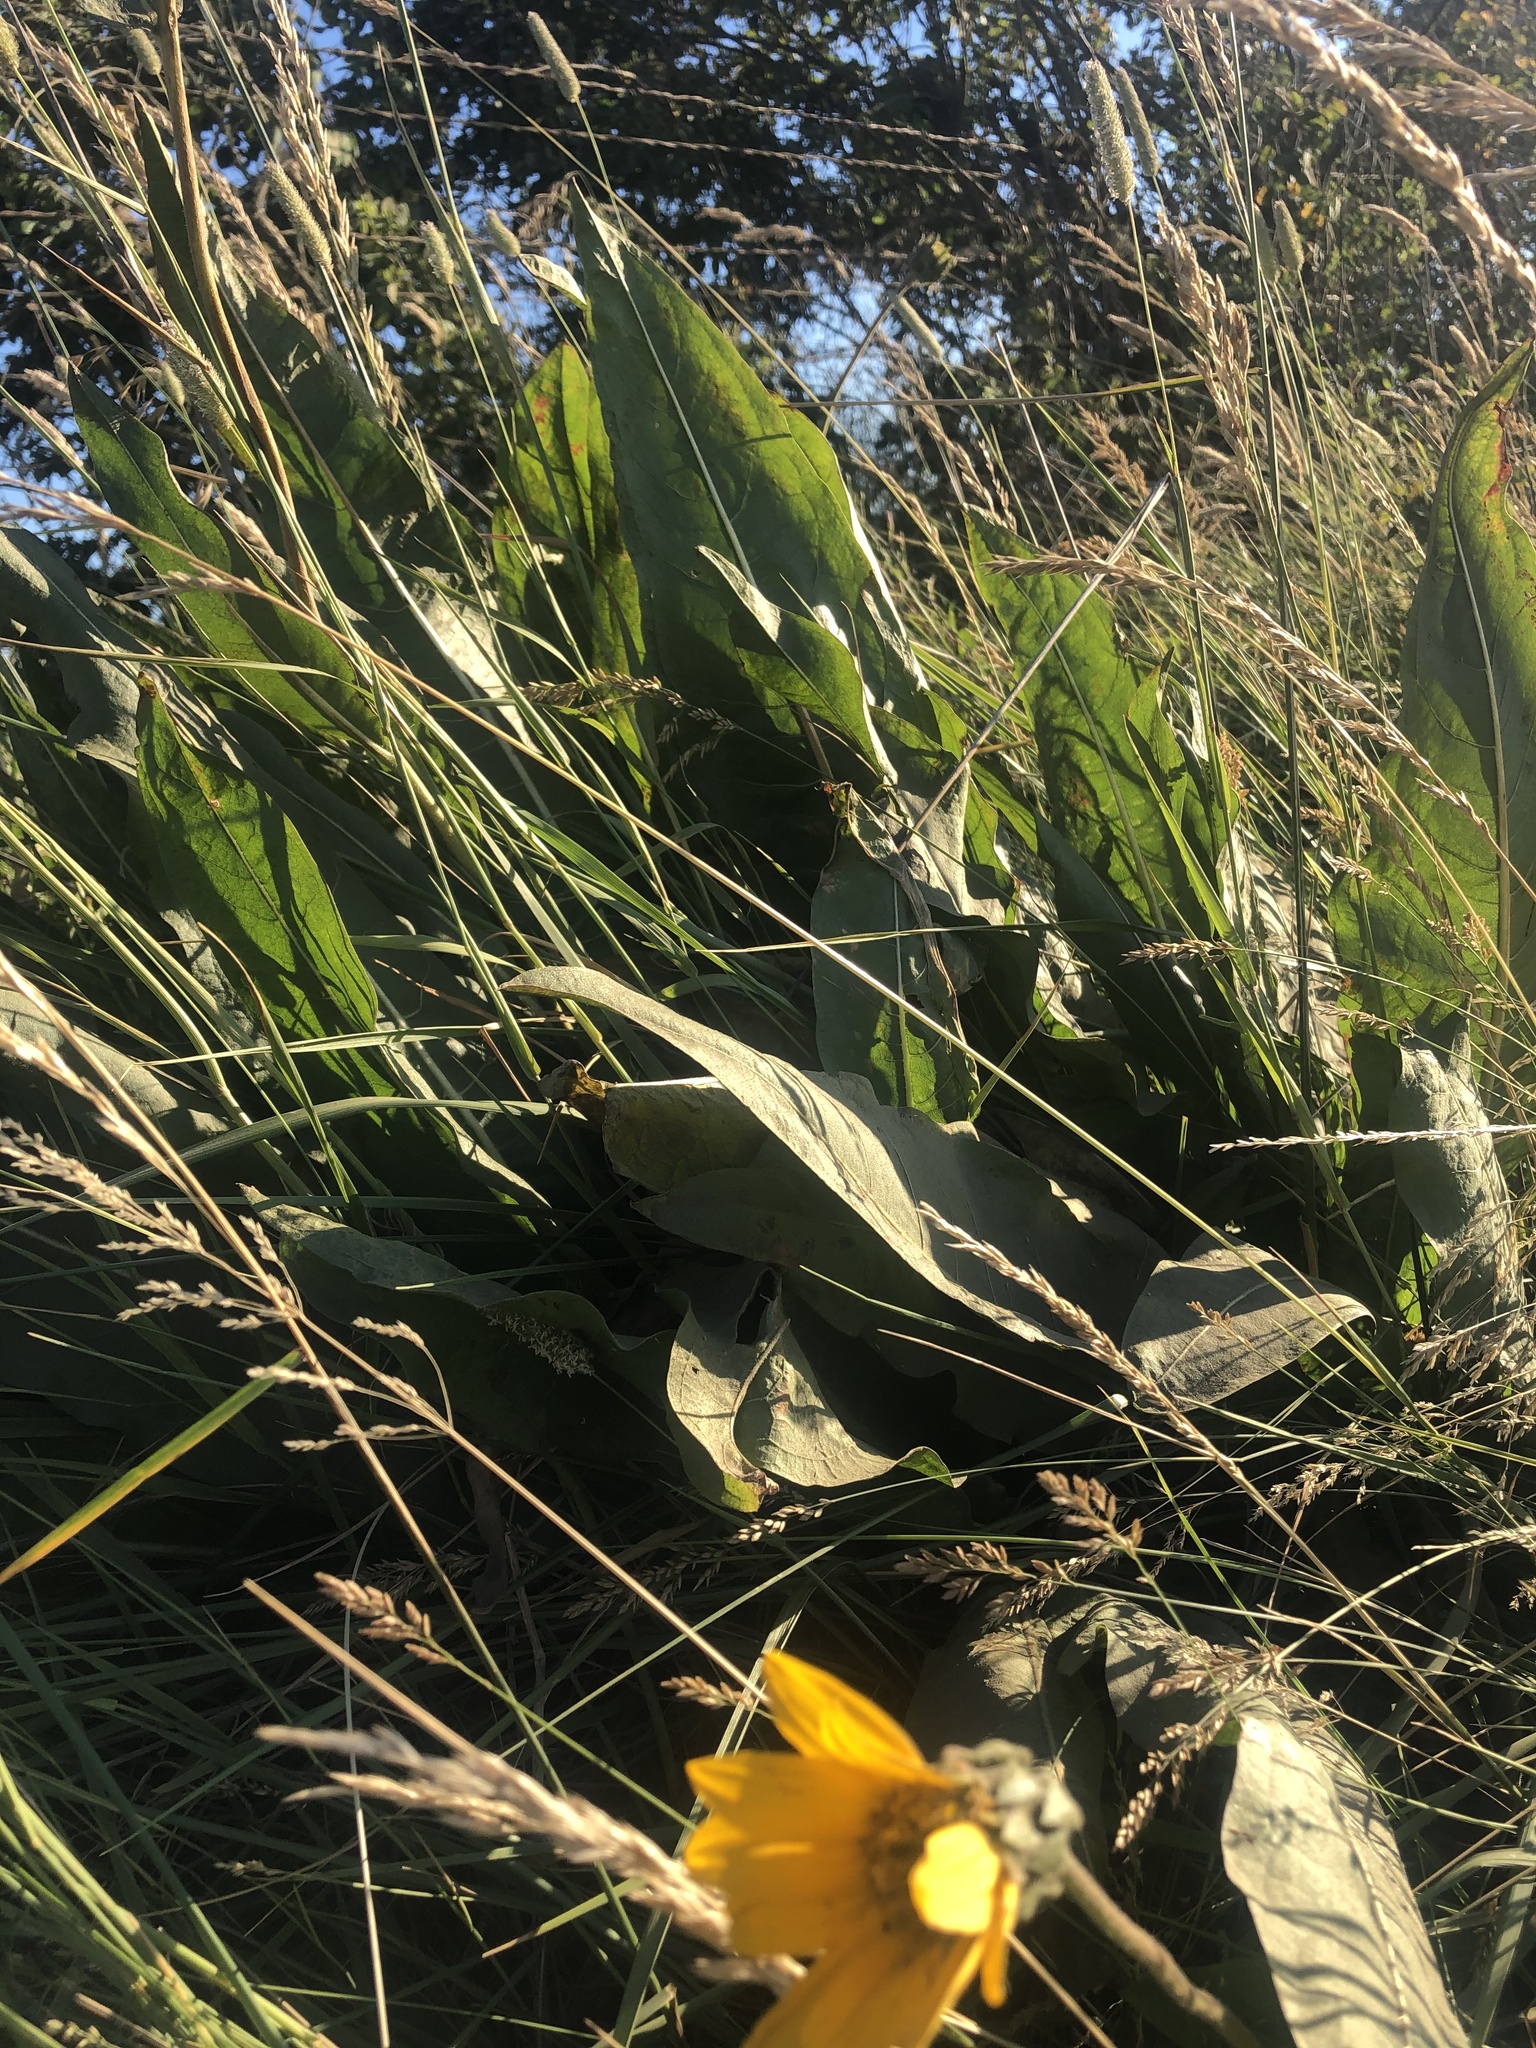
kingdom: Plantae
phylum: Tracheophyta
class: Magnoliopsida
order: Asterales
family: Asteraceae
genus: Wyethia
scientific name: Wyethia angustifolia
